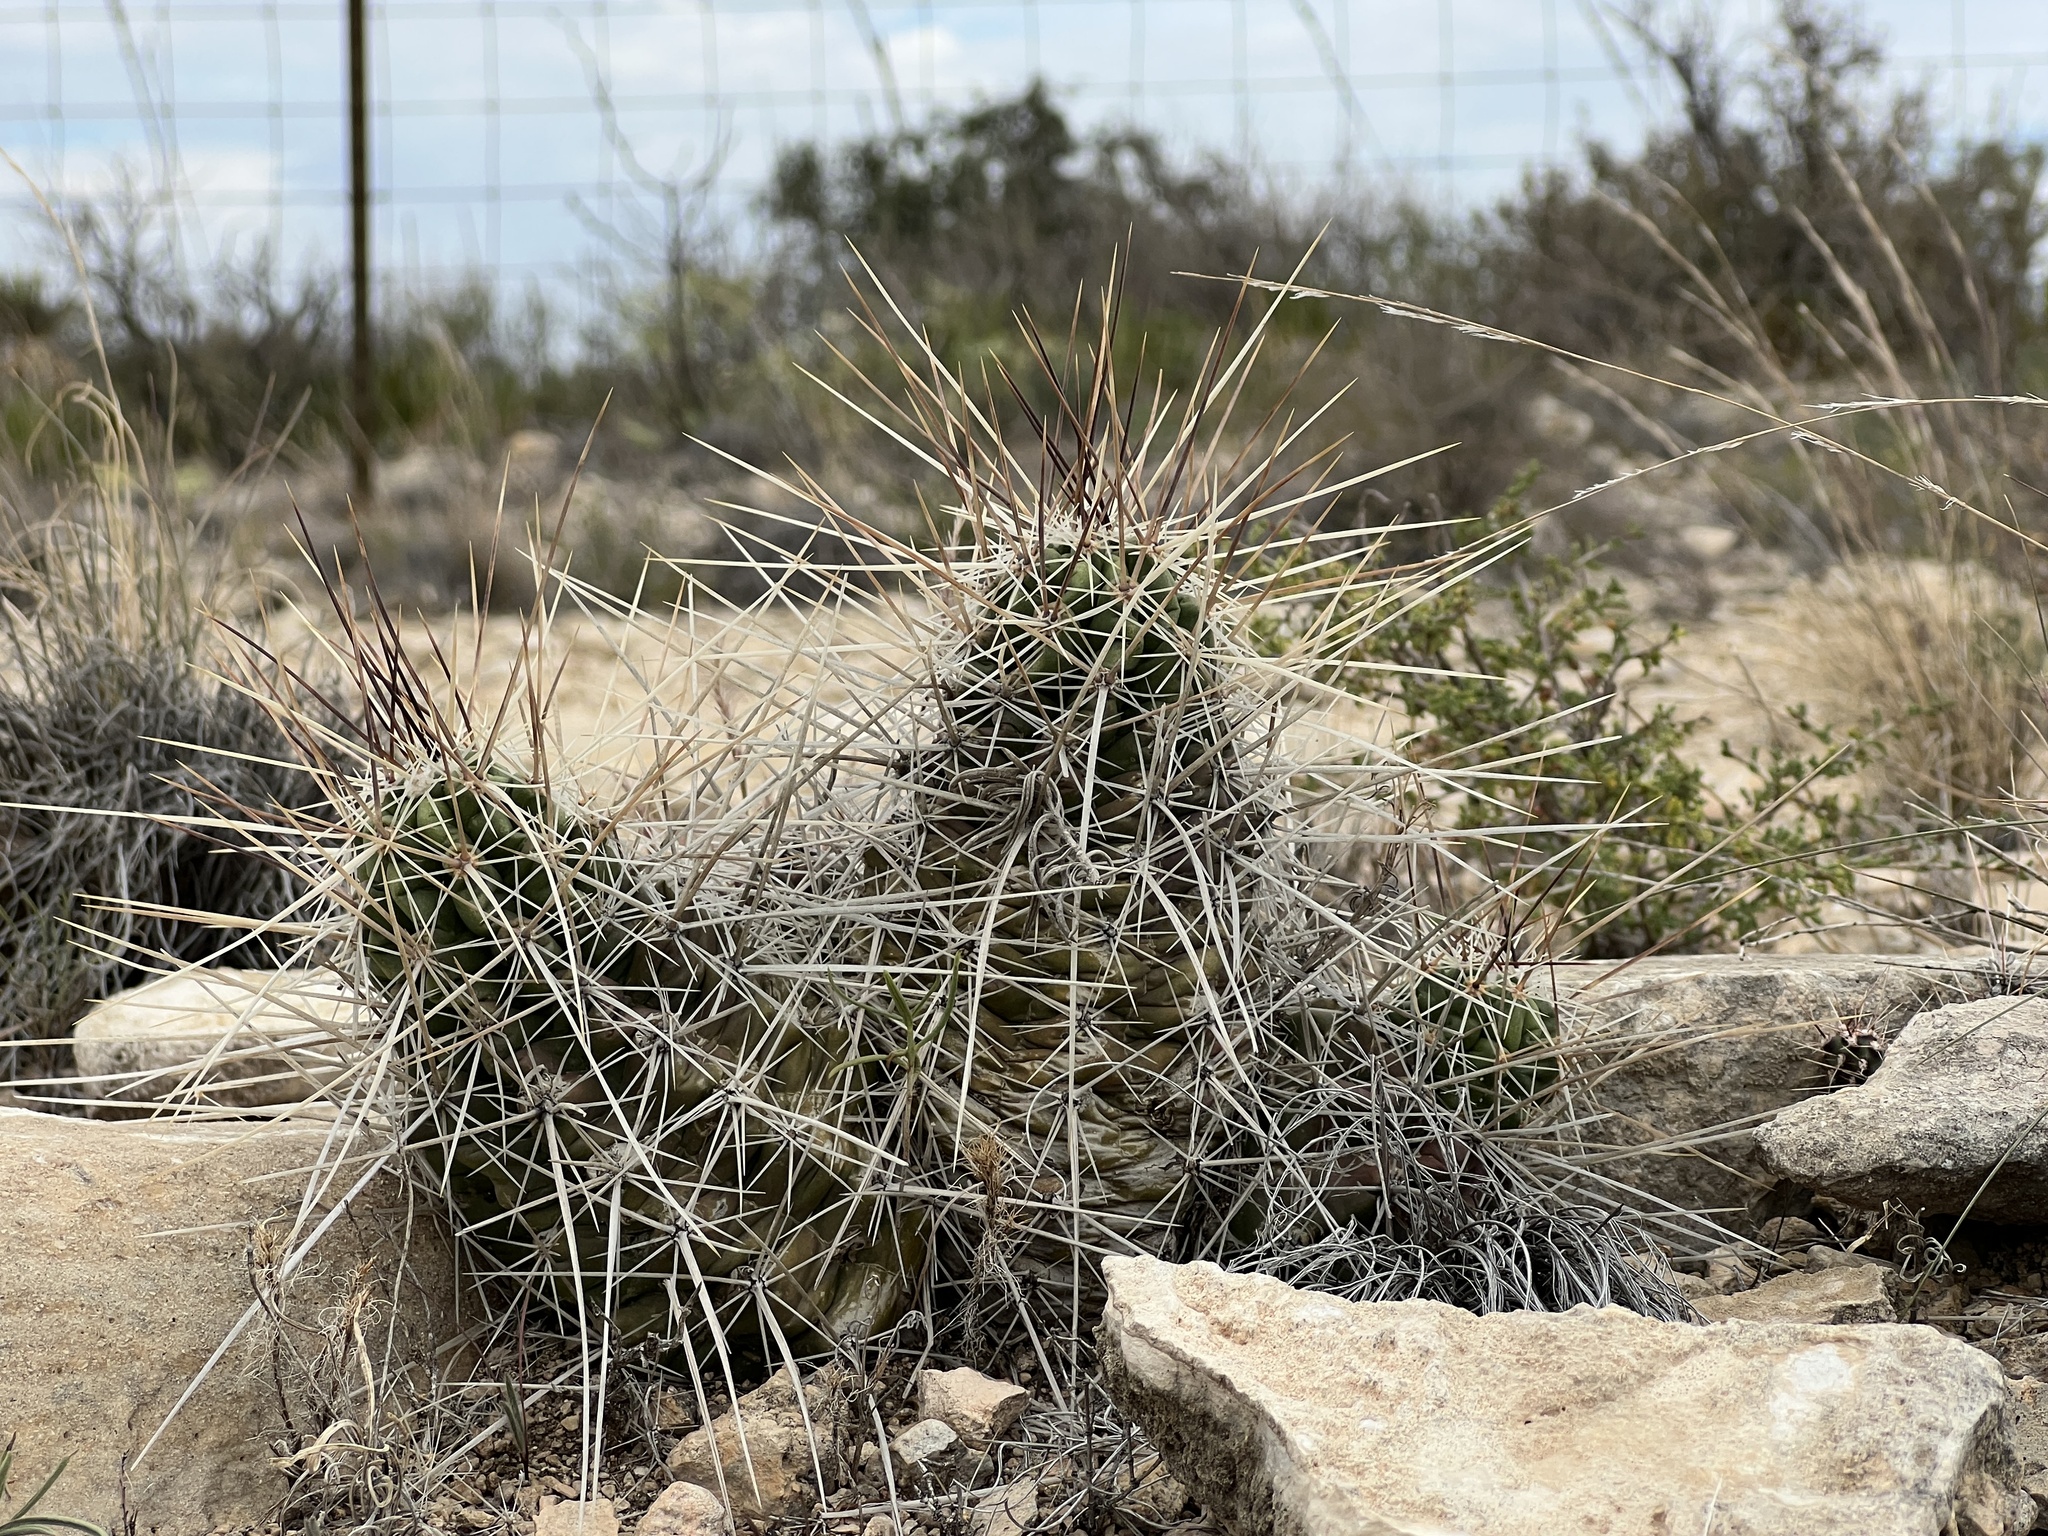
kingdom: Plantae
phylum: Tracheophyta
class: Magnoliopsida
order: Caryophyllales
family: Cactaceae
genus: Echinocereus
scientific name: Echinocereus enneacanthus
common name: Pitaya
